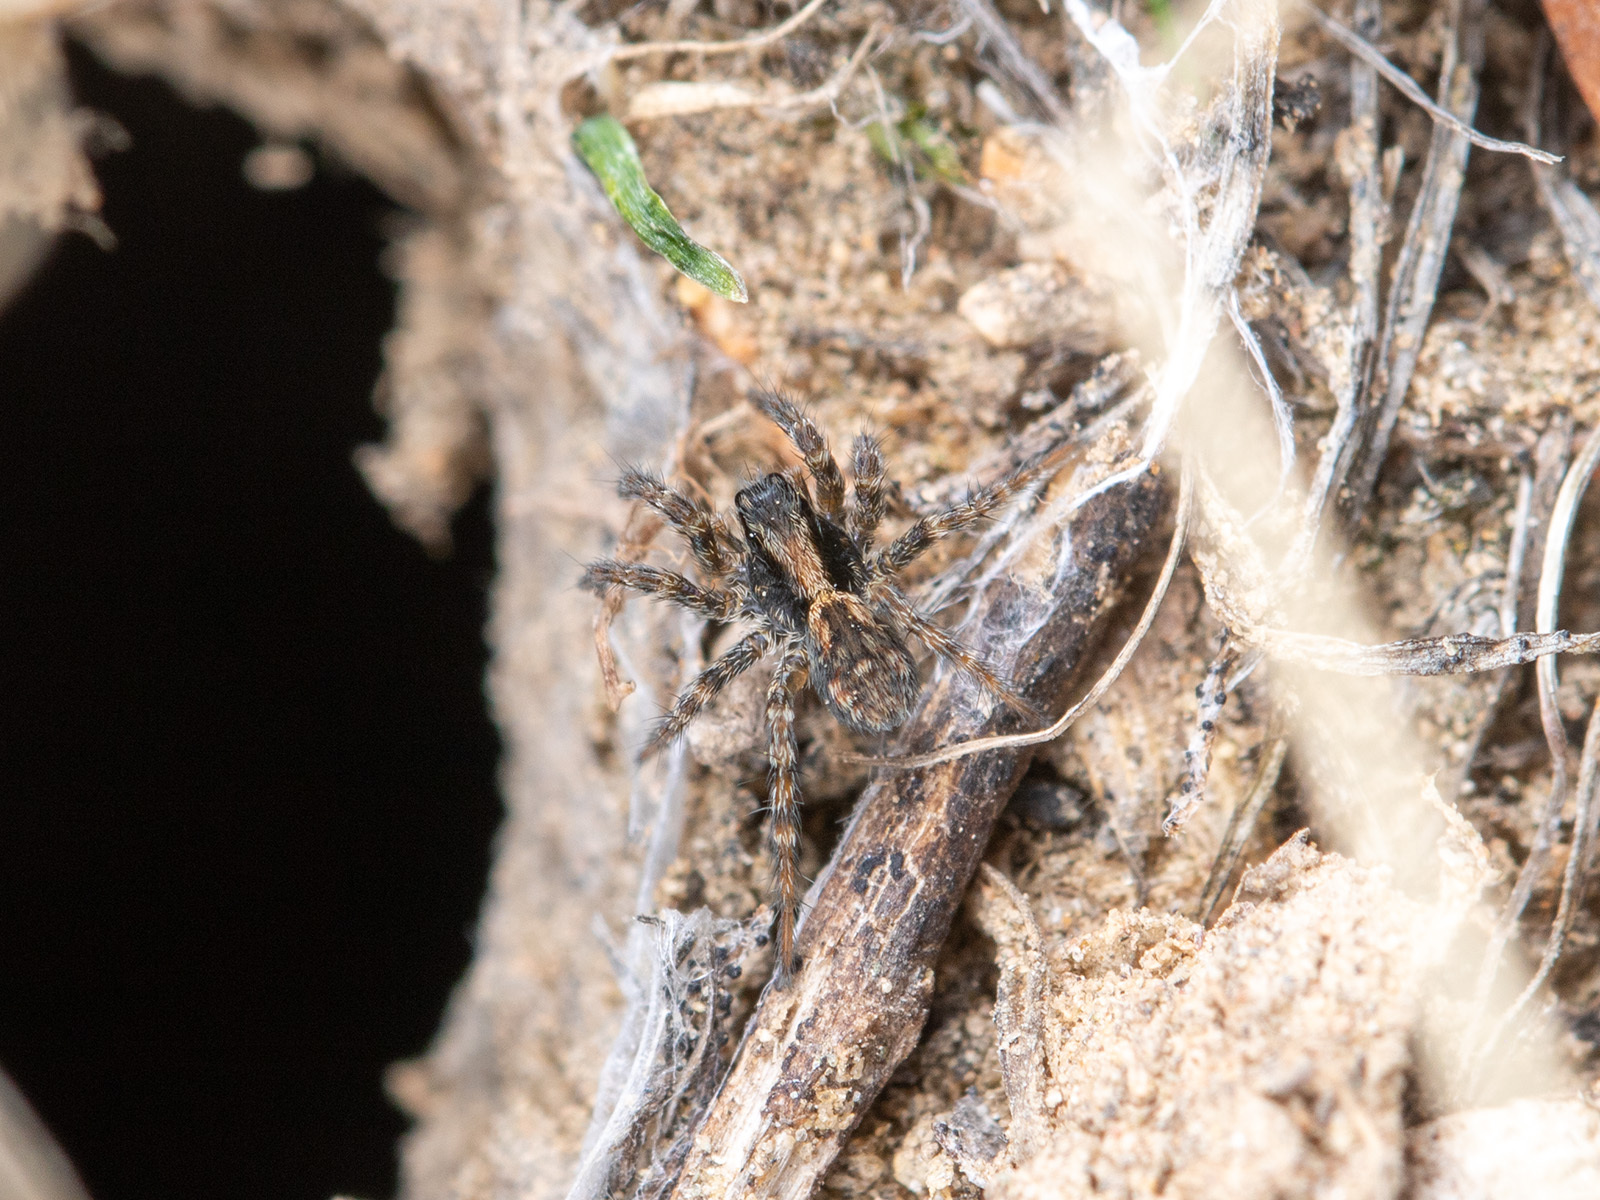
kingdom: Animalia
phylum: Arthropoda
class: Arachnida
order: Araneae
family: Lycosidae
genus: Lycosa
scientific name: Lycosa praegrandis
